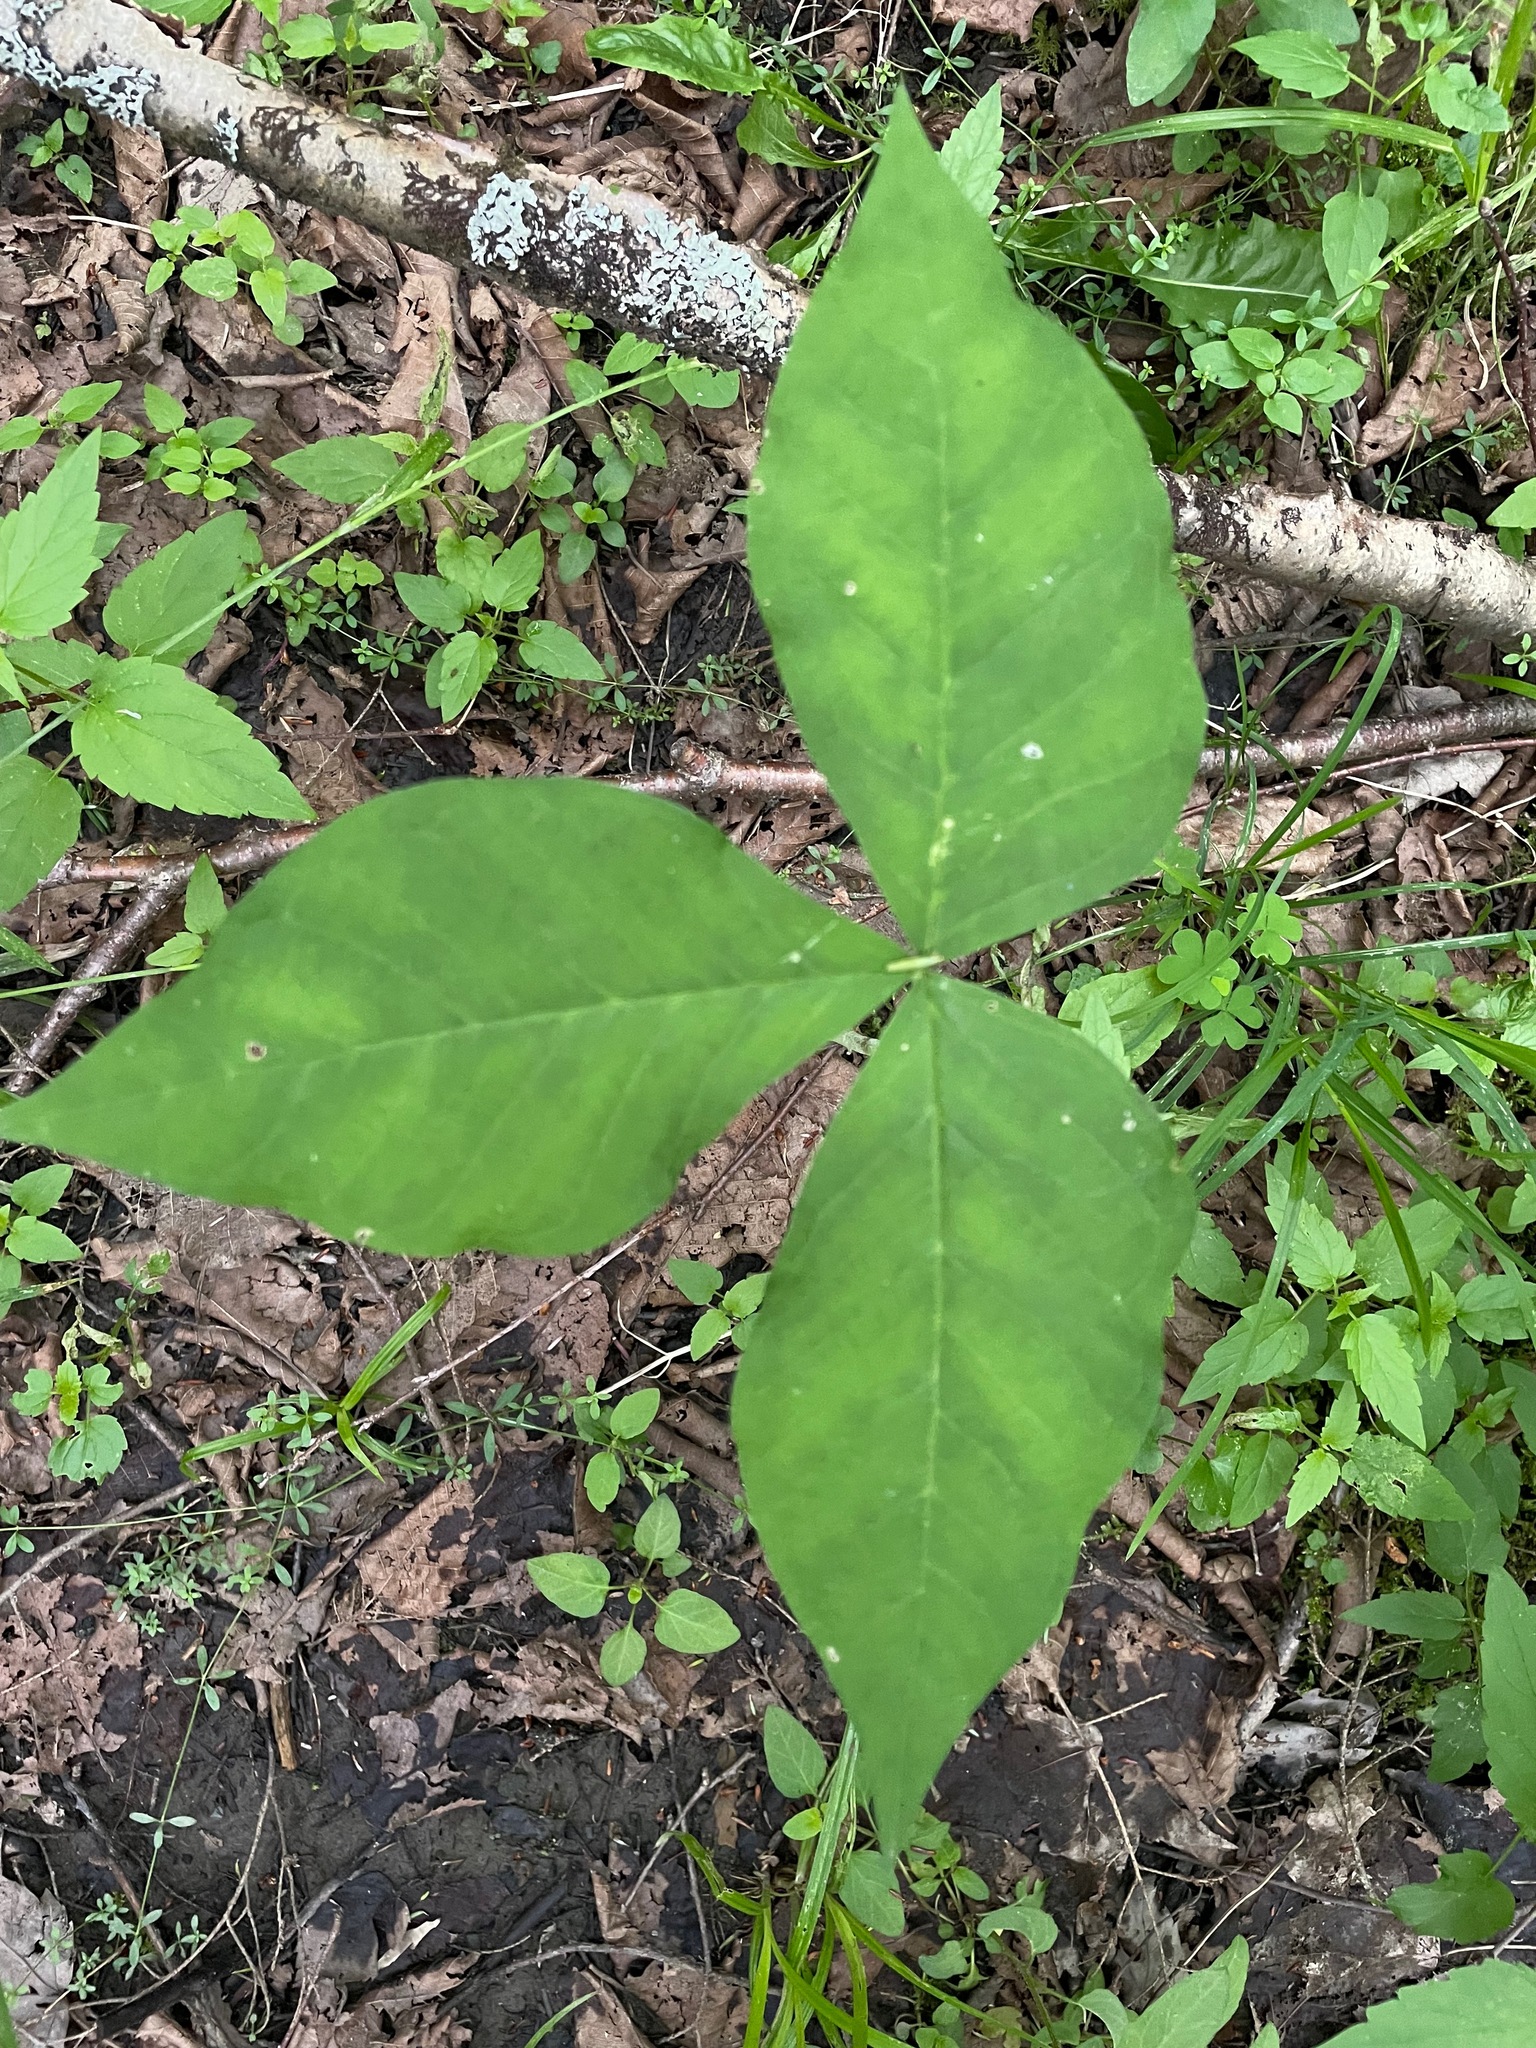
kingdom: Plantae
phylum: Tracheophyta
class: Liliopsida
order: Alismatales
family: Araceae
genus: Arisaema
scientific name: Arisaema
